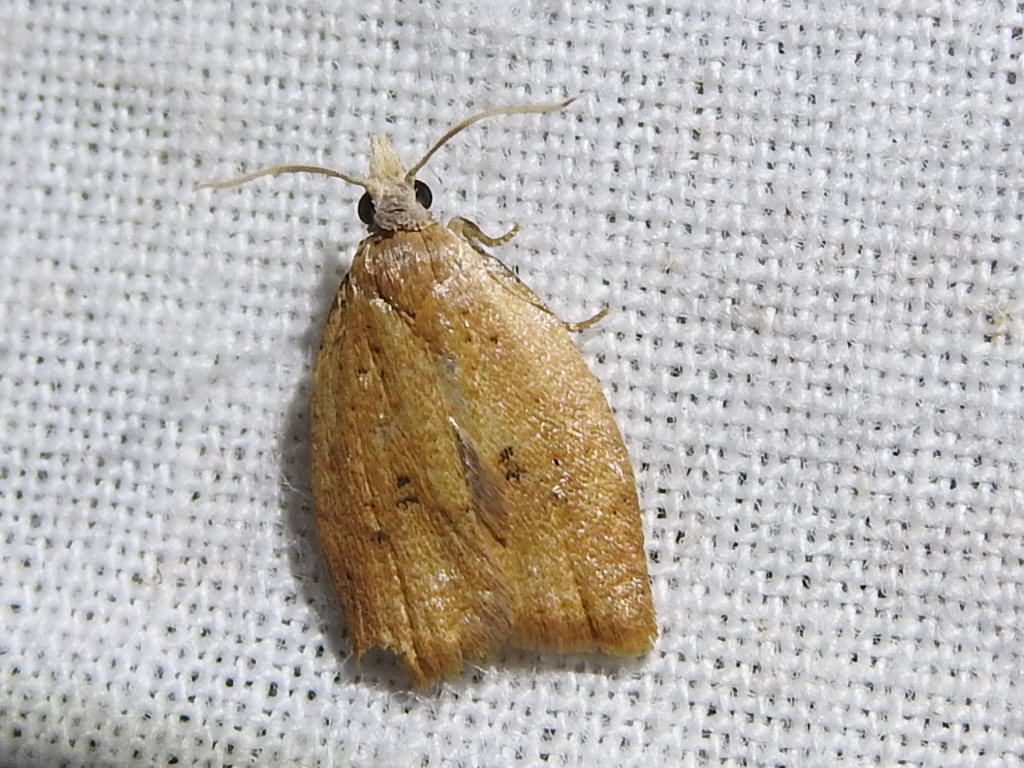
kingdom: Animalia
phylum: Arthropoda
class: Insecta
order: Lepidoptera
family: Tortricidae
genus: Sparganothoides
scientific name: Sparganothoides lentiginosana
